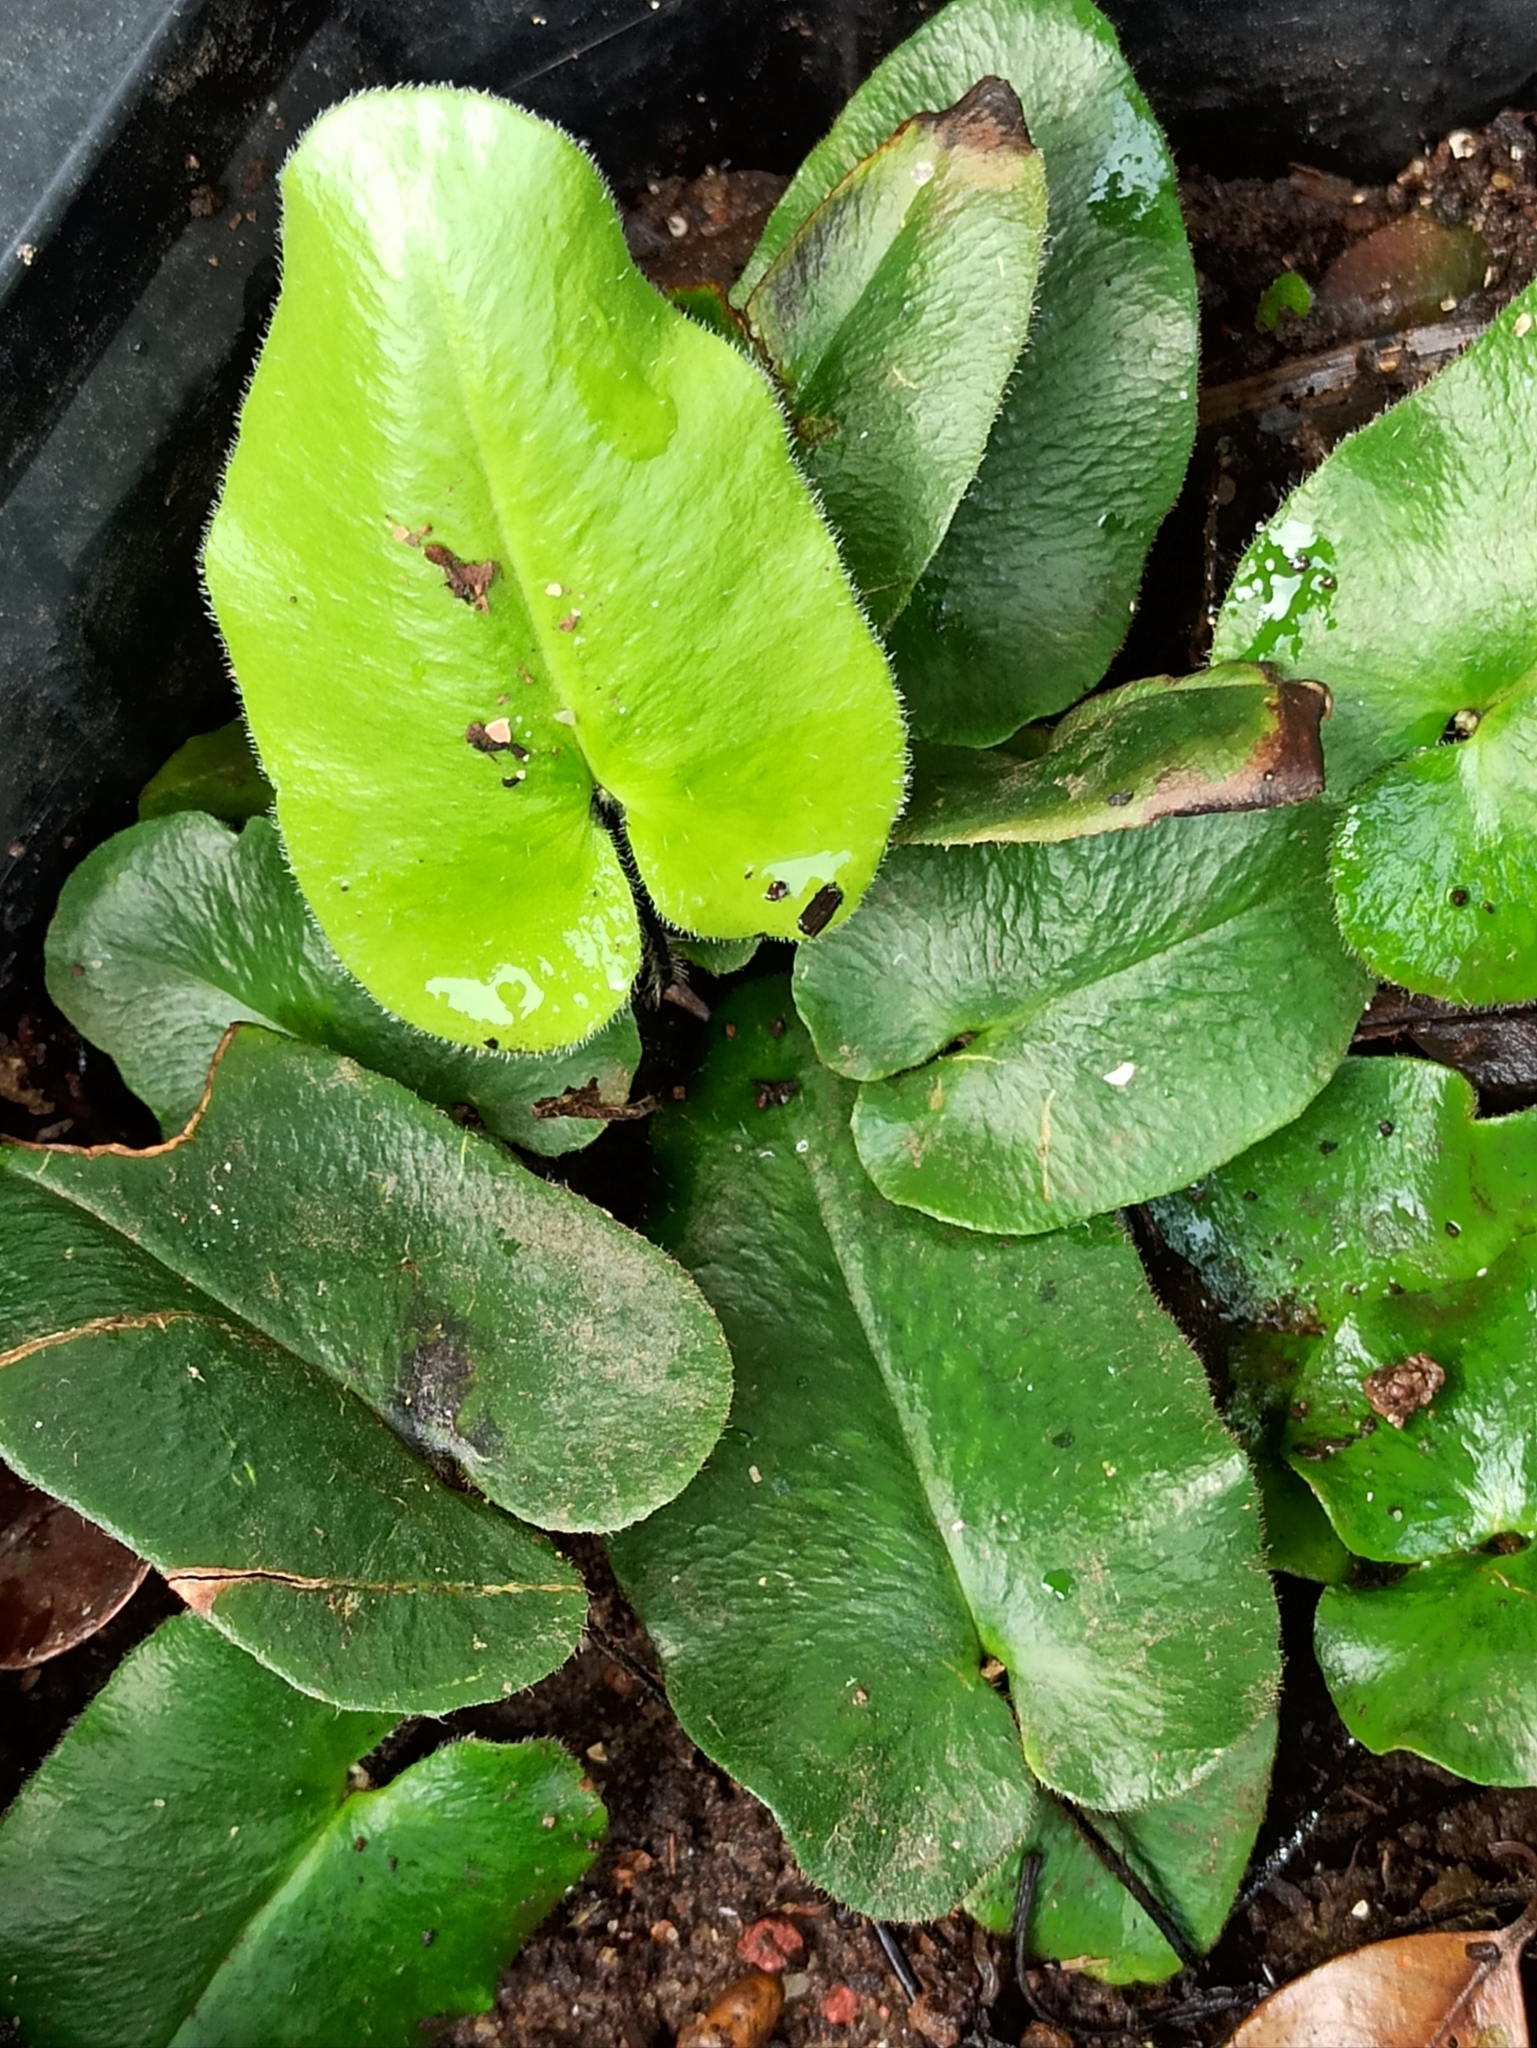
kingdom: Plantae
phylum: Tracheophyta
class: Polypodiopsida
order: Polypodiales
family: Pteridaceae
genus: Mickelopteris
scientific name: Mickelopteris cordata
